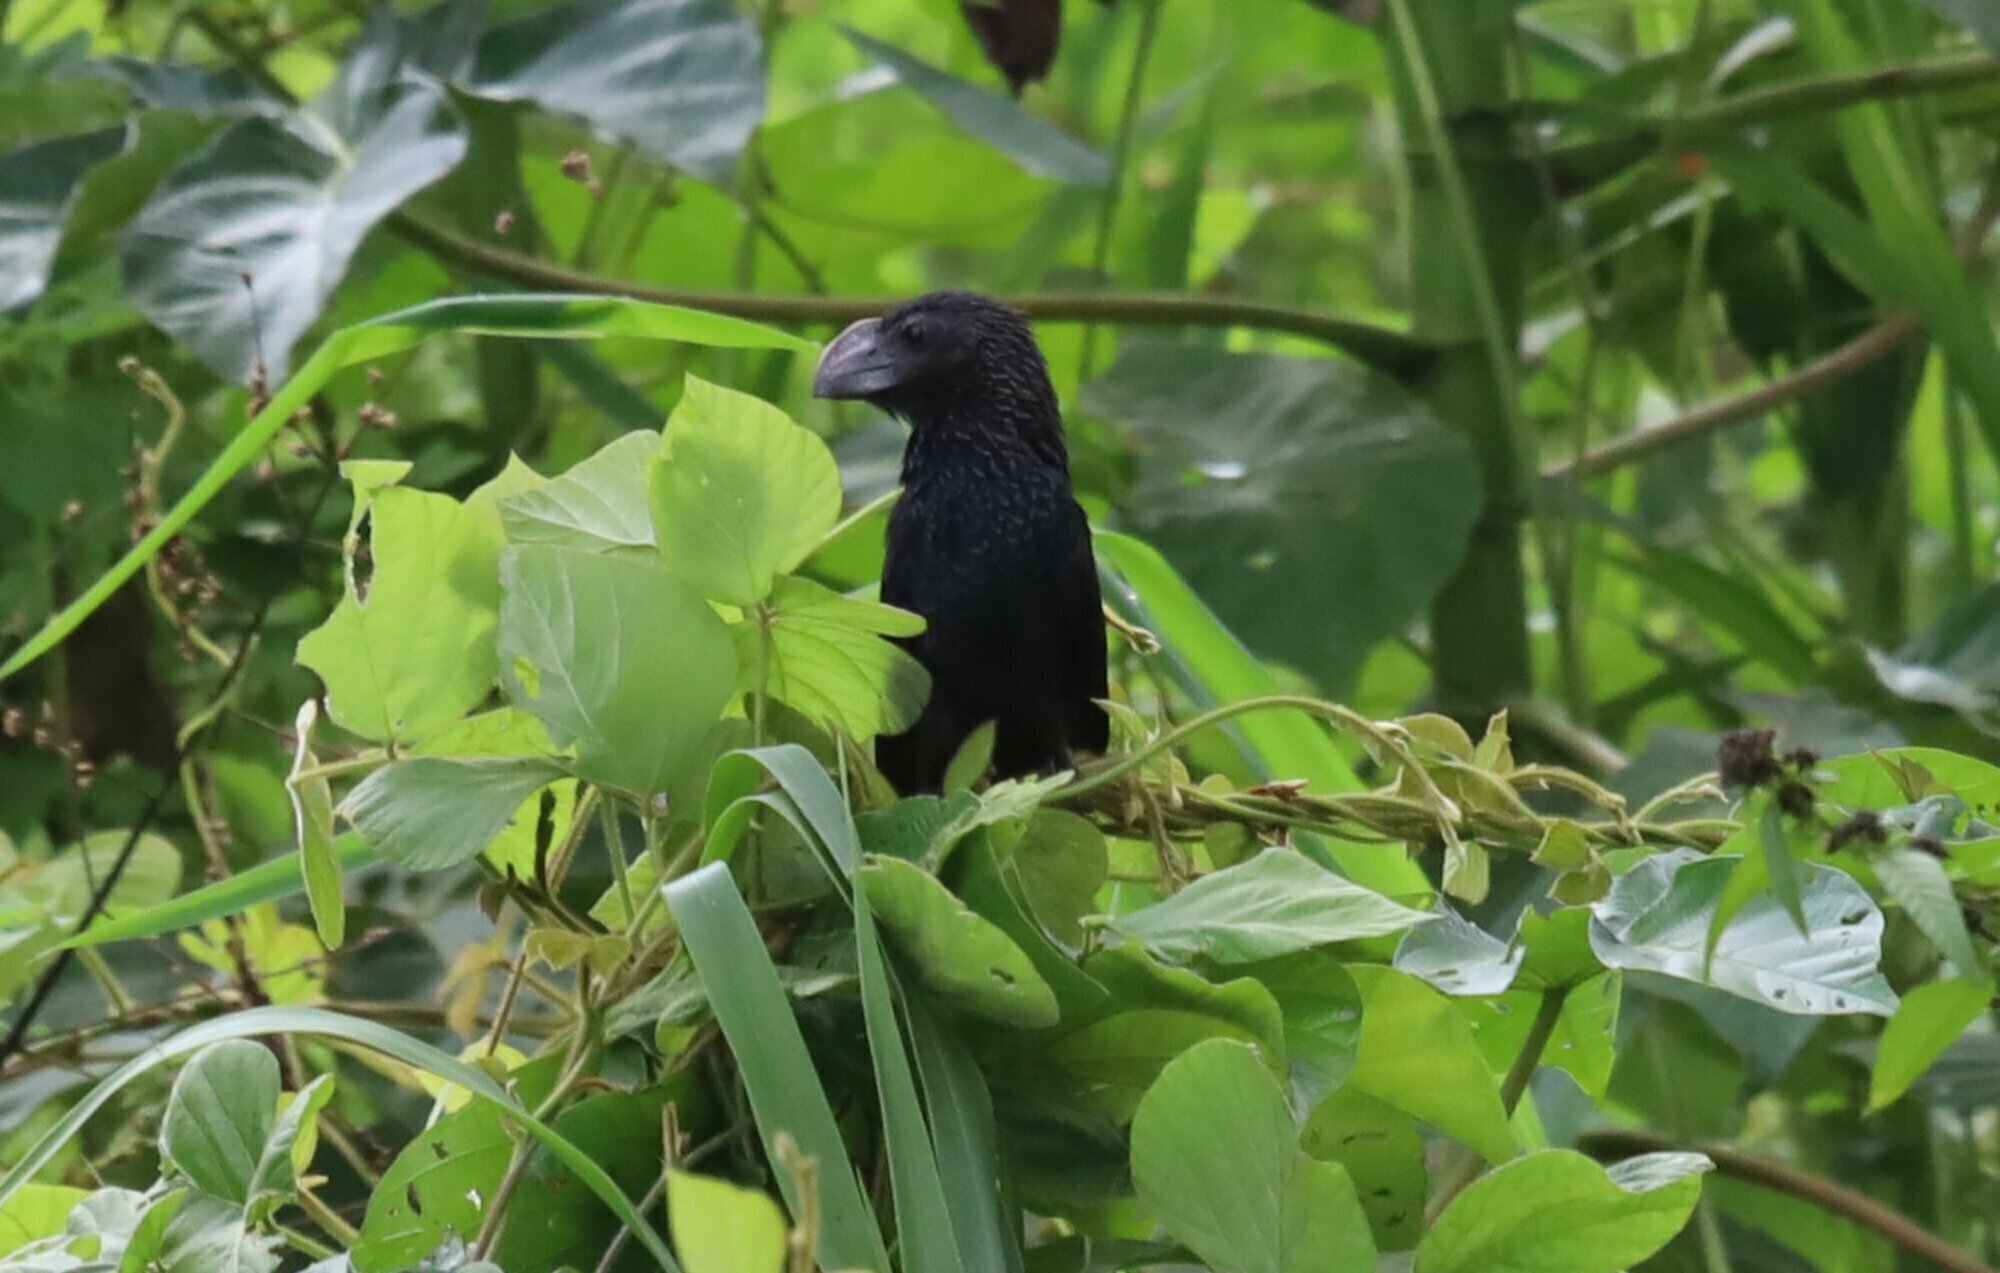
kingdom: Animalia
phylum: Chordata
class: Aves
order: Cuculiformes
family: Cuculidae
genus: Crotophaga
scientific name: Crotophaga ani
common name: Smooth-billed ani
